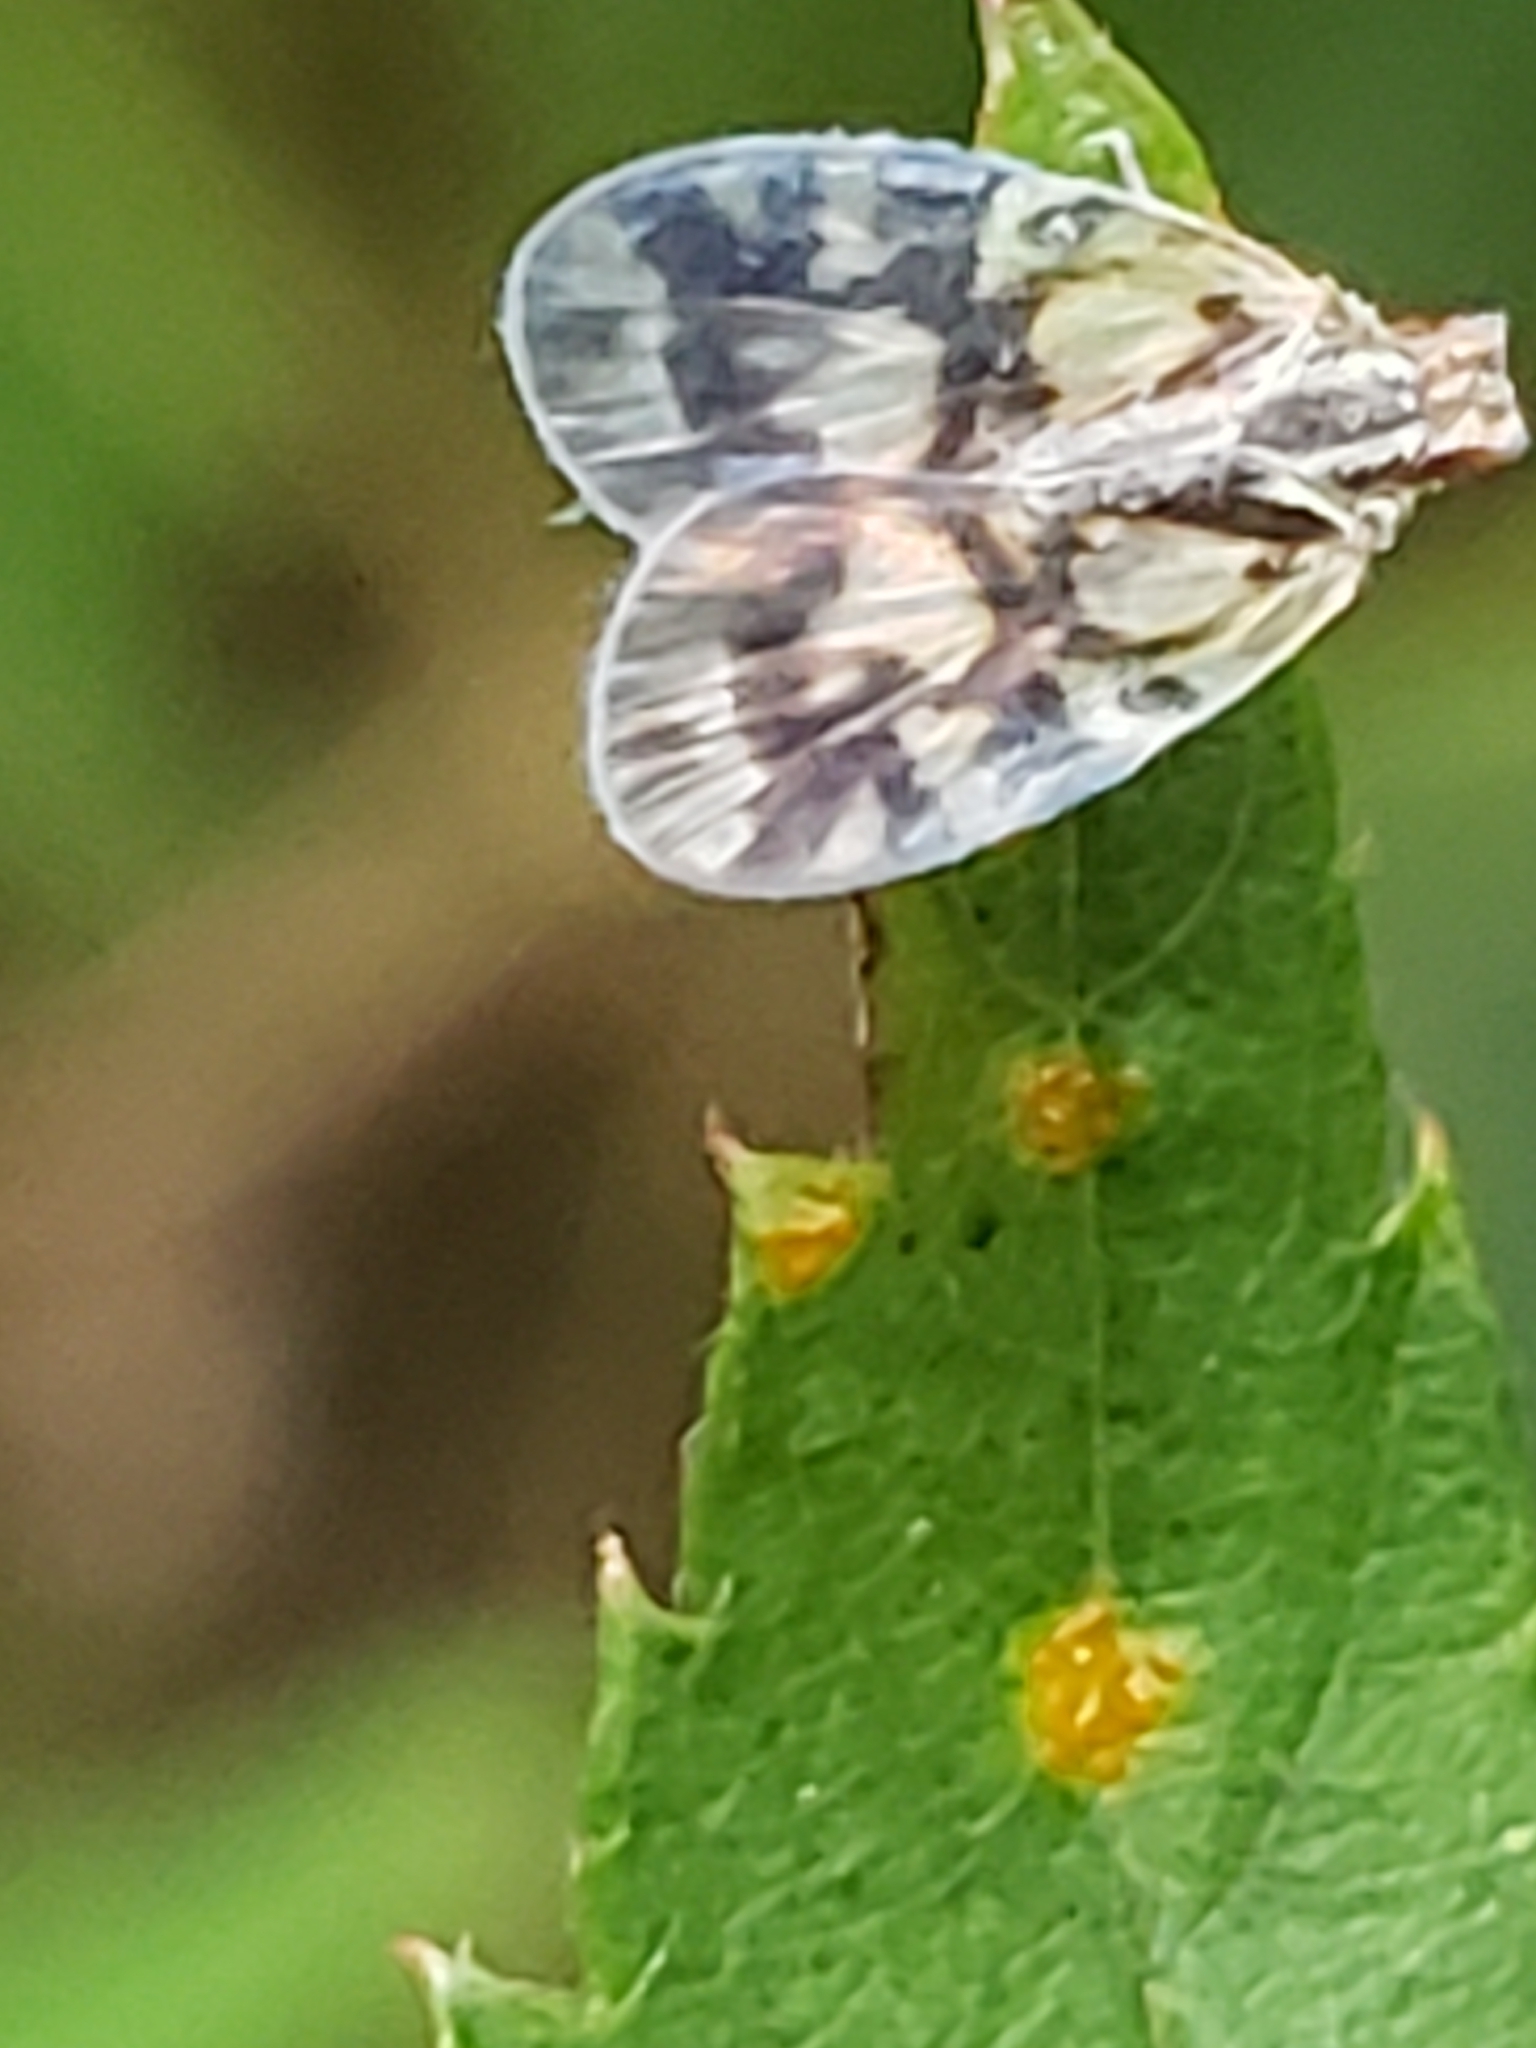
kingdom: Animalia
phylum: Arthropoda
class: Insecta
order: Hemiptera
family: Cixiidae
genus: Bothriocera
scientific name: Bothriocera cognita
